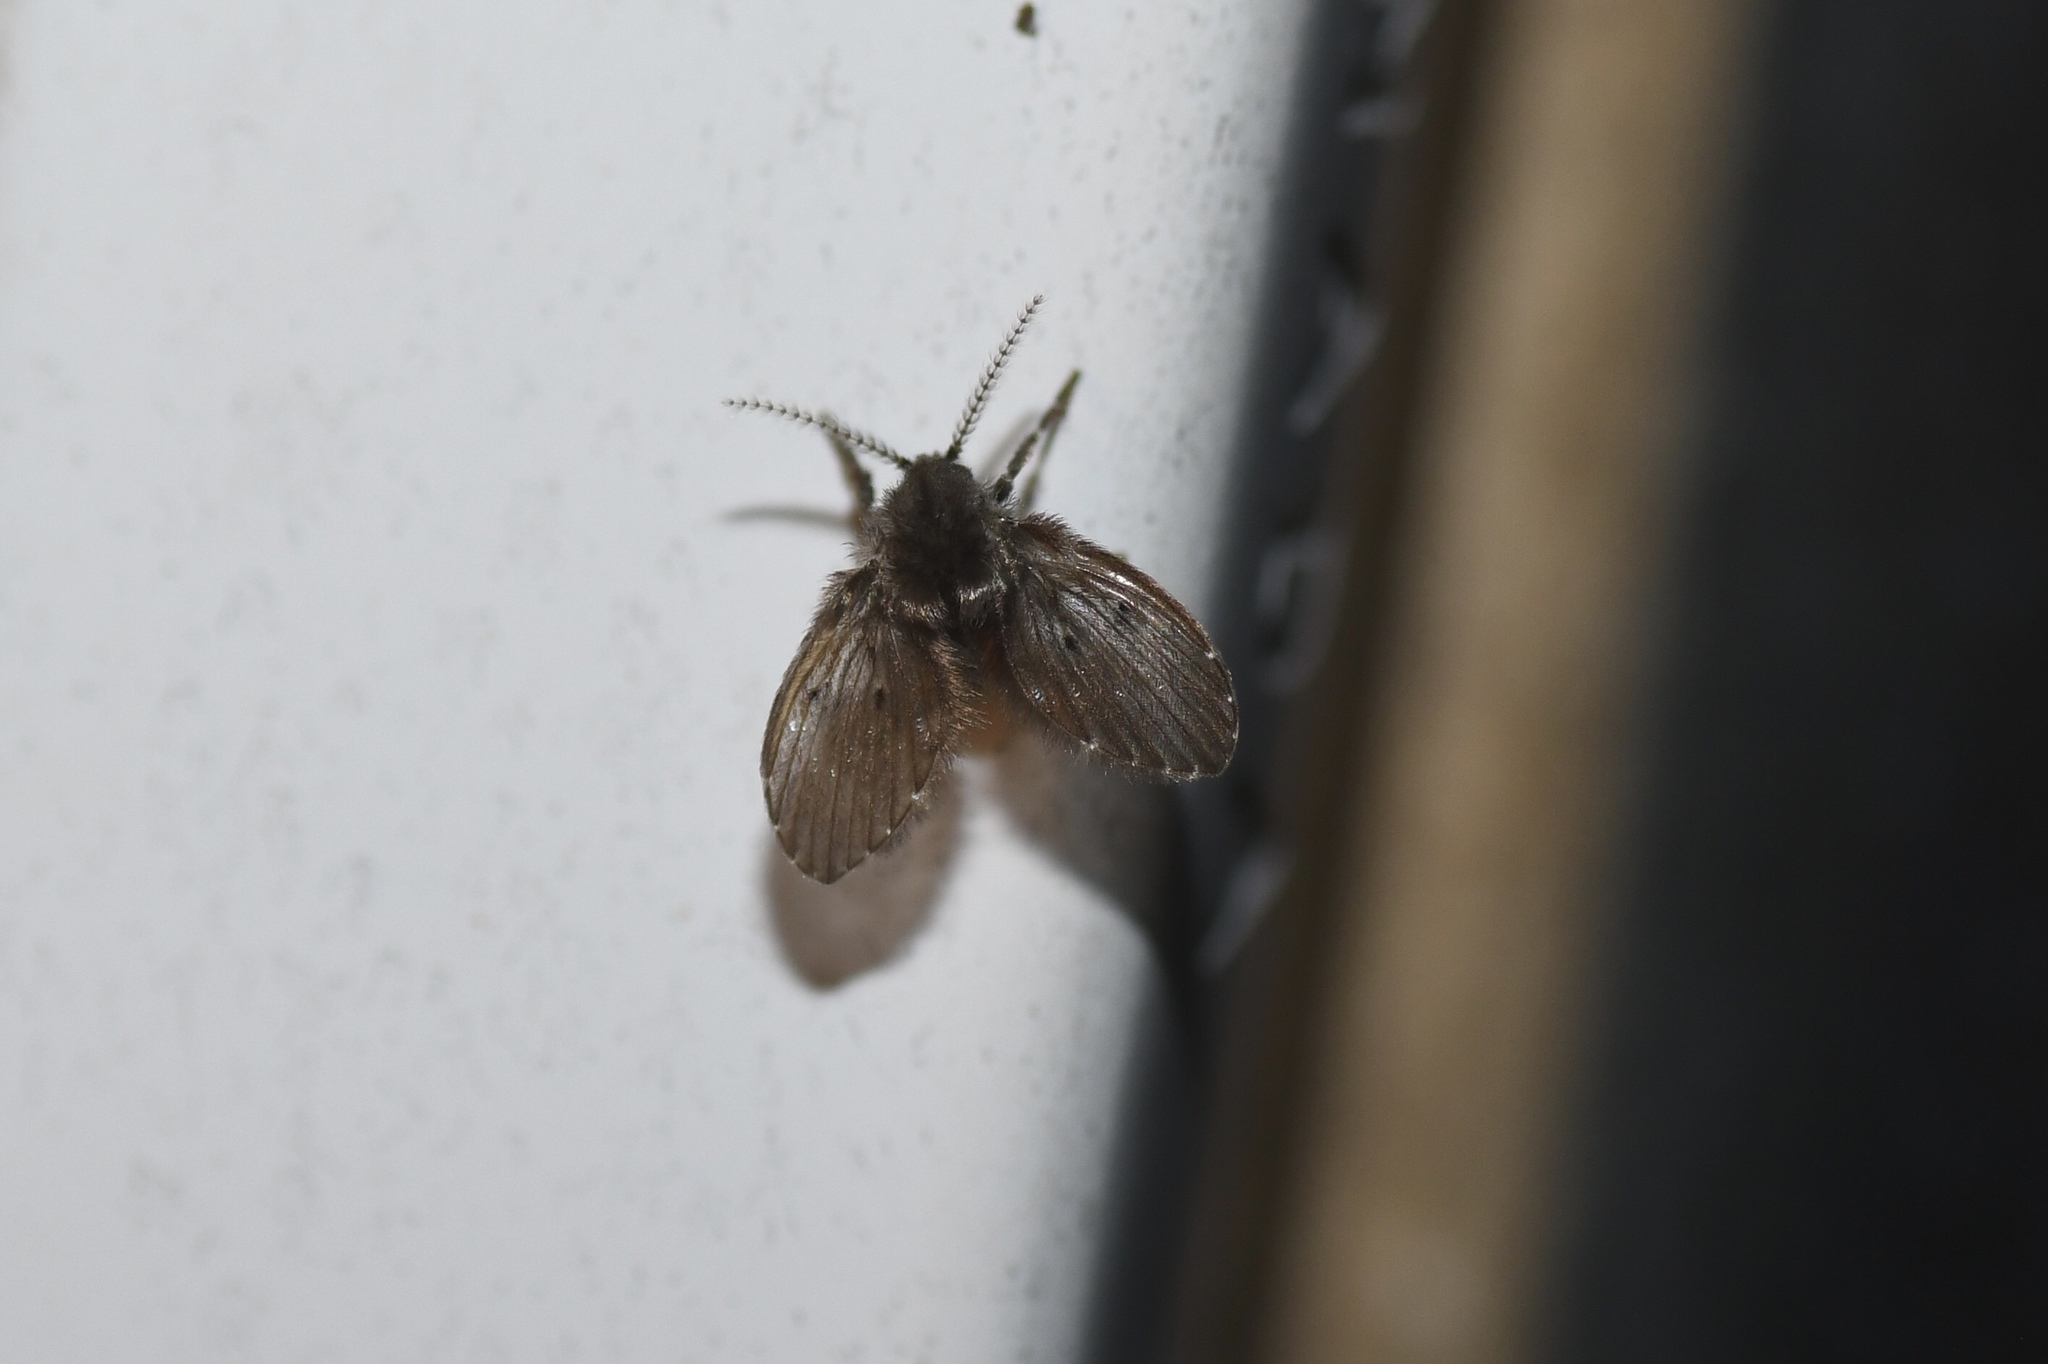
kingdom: Animalia
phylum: Arthropoda
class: Insecta
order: Diptera
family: Psychodidae
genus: Clogmia
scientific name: Clogmia albipunctatus
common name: White-spotted moth fly
